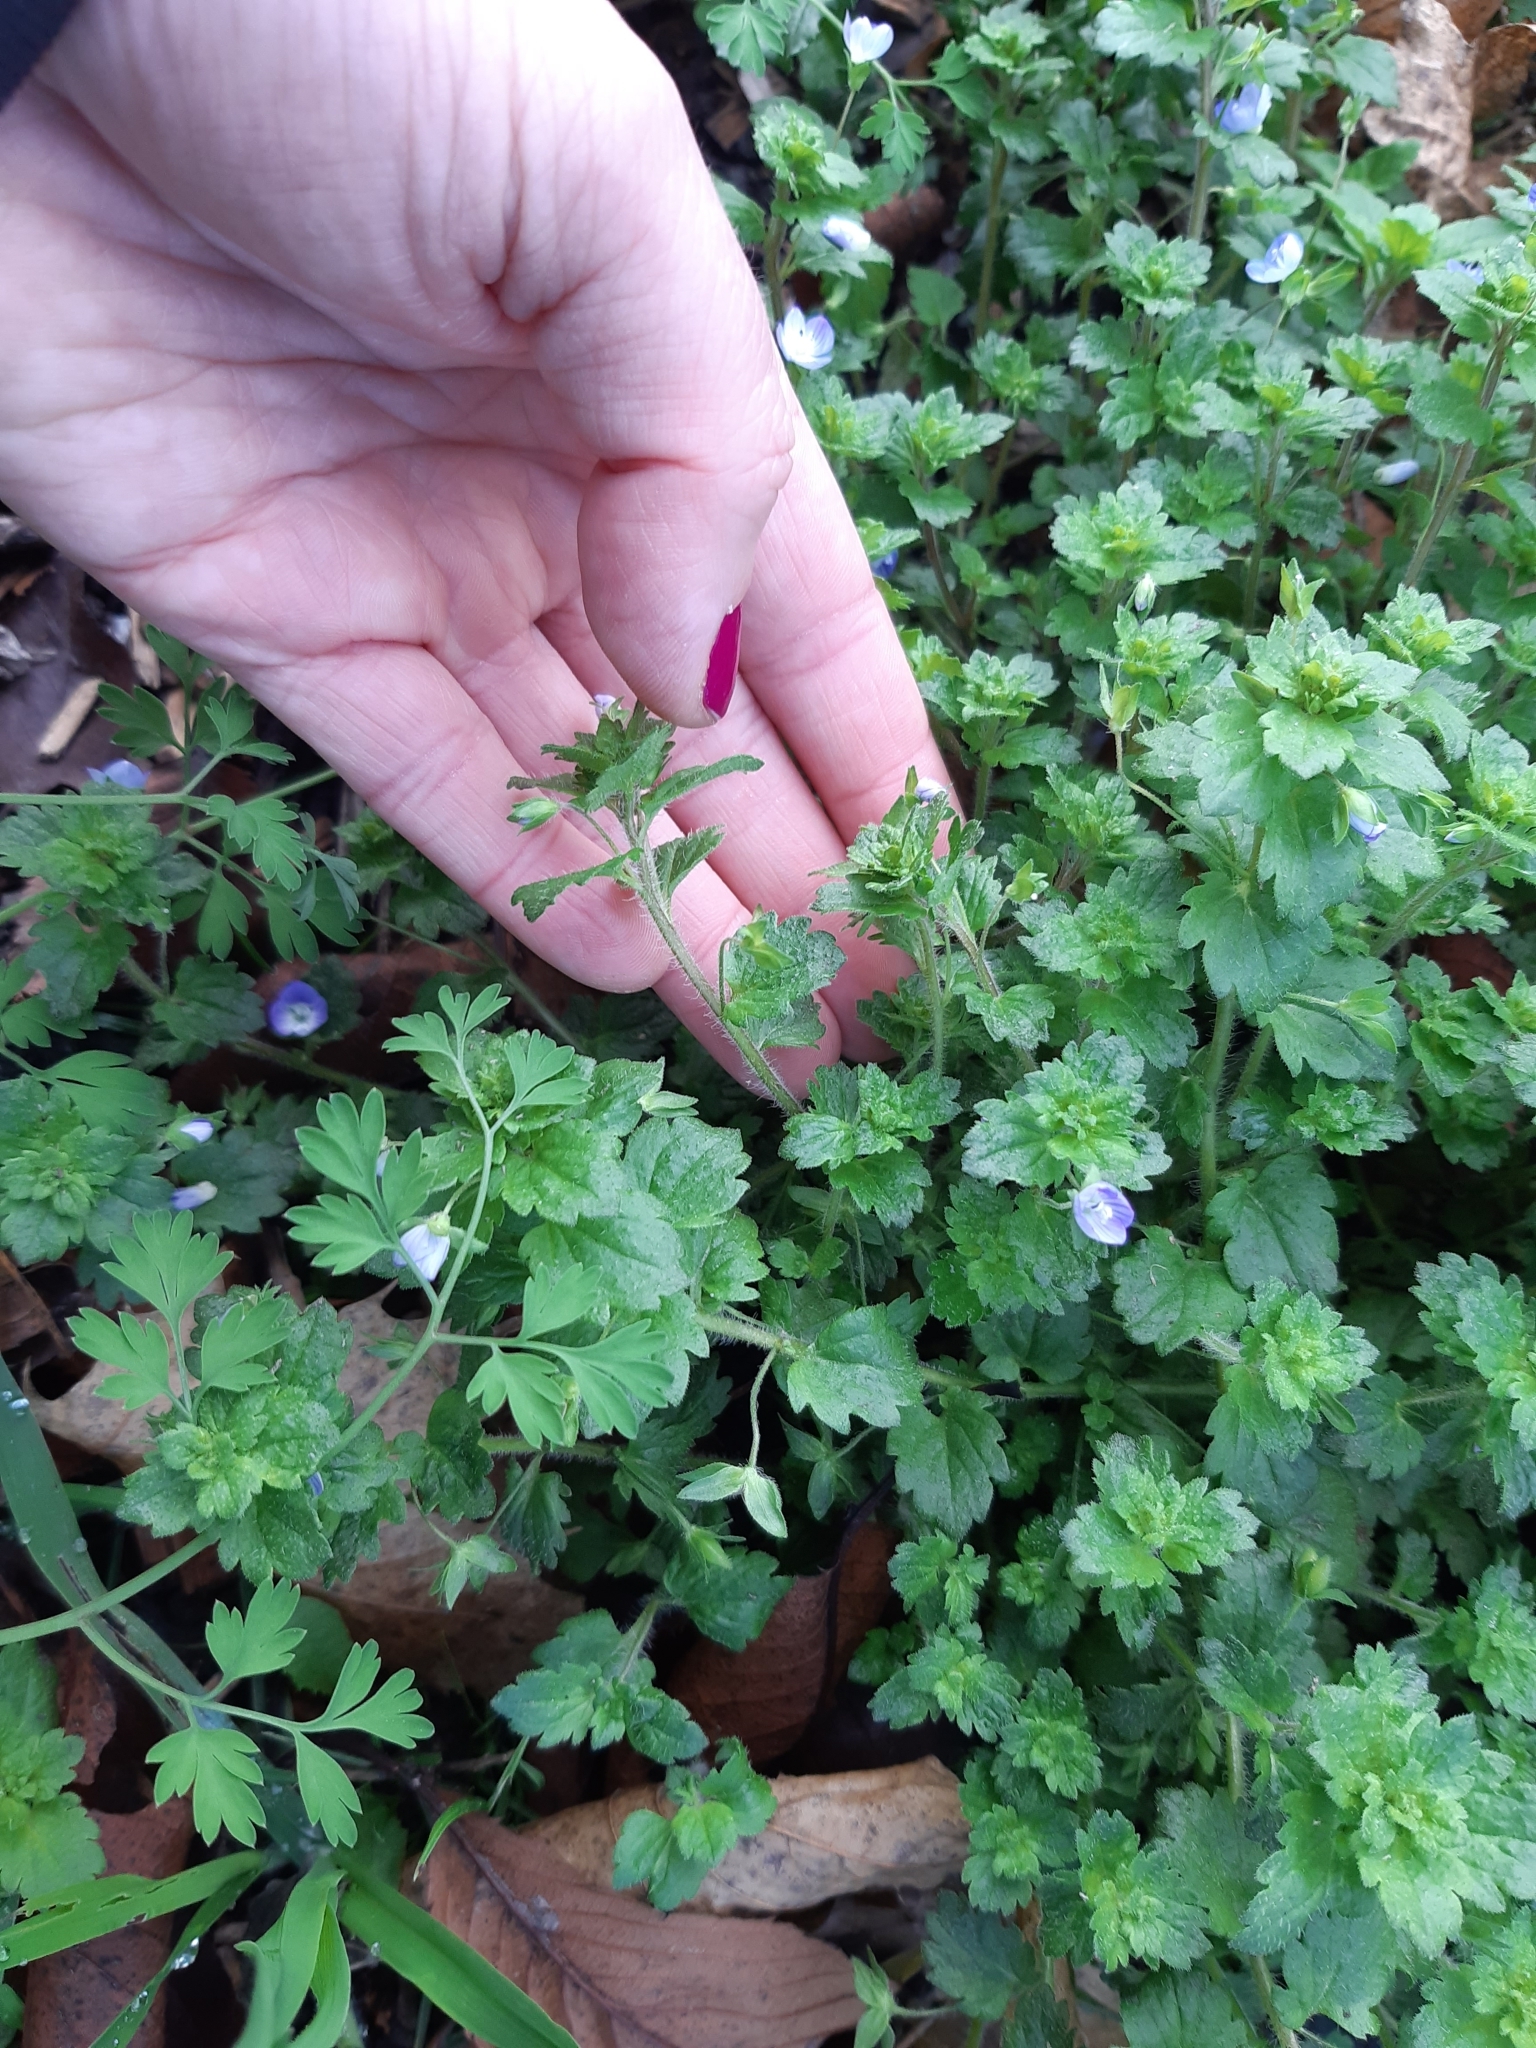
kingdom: Plantae
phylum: Tracheophyta
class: Magnoliopsida
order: Lamiales
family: Plantaginaceae
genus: Veronica
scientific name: Veronica persica
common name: Common field-speedwell
